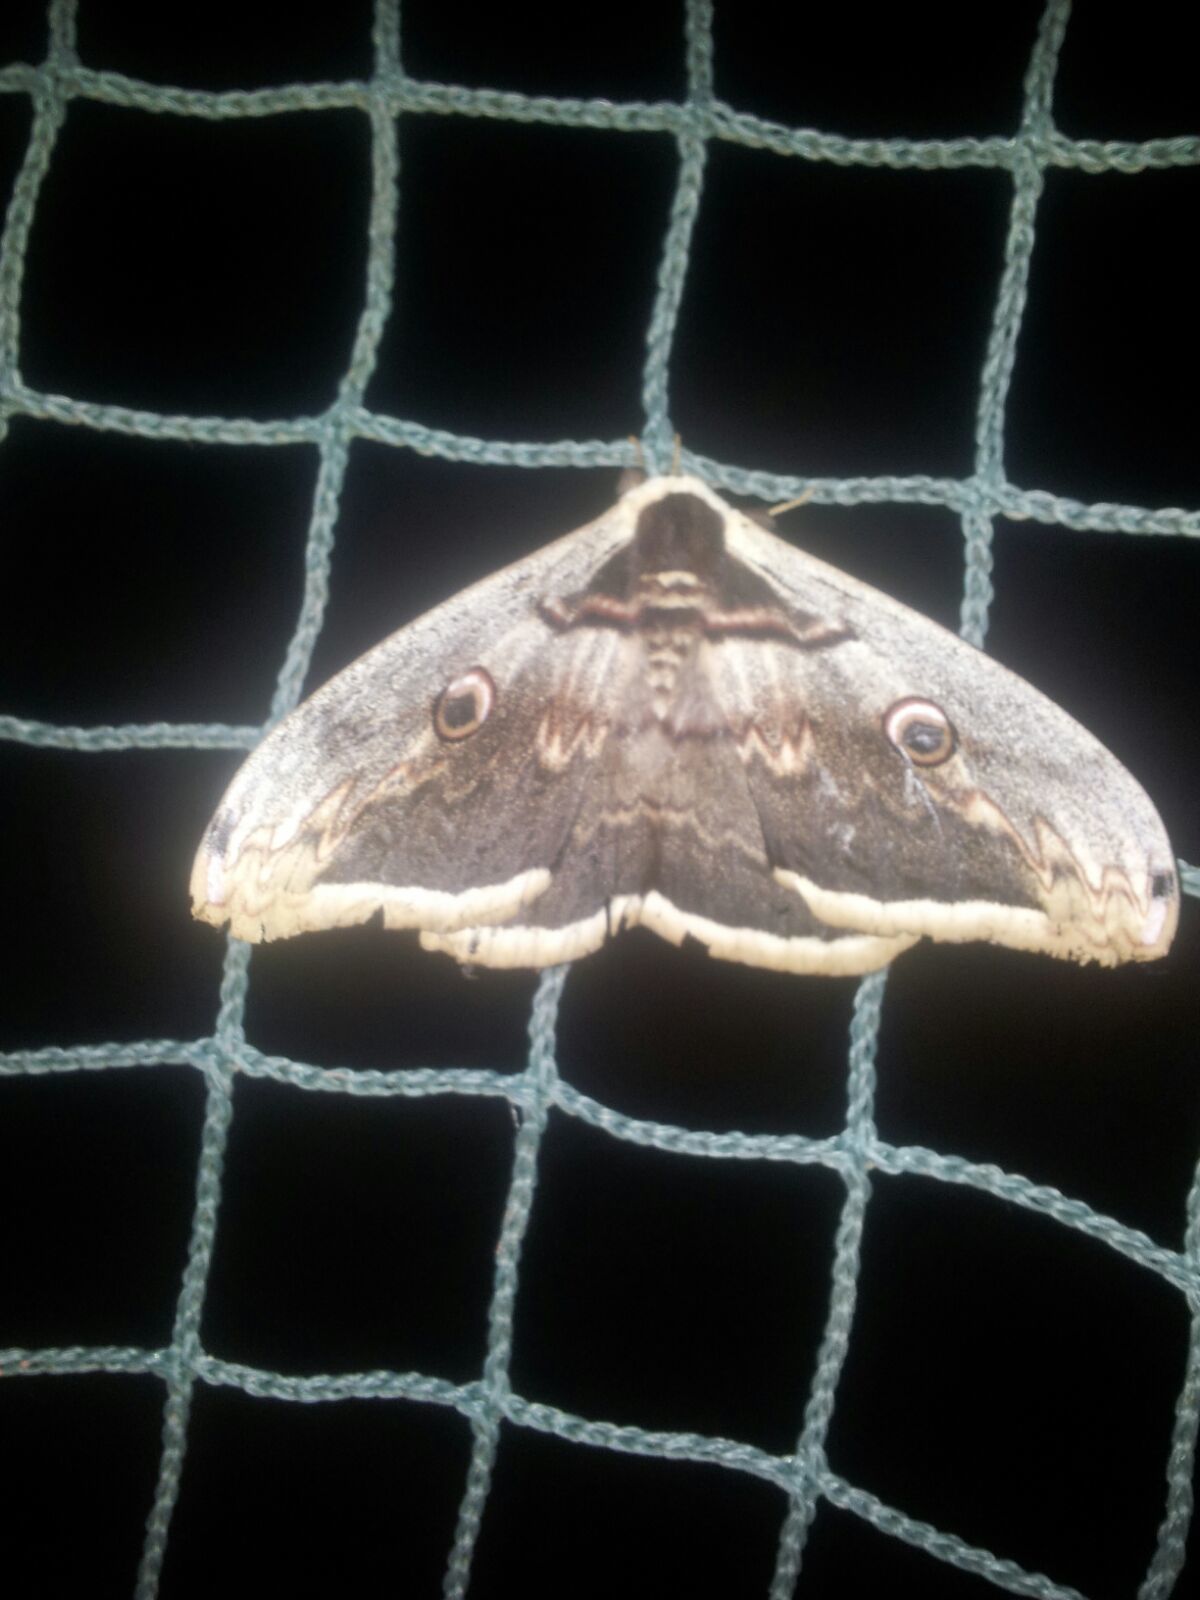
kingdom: Animalia
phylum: Arthropoda
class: Insecta
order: Lepidoptera
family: Saturniidae
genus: Saturnia
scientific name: Saturnia pyri
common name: Great peacock moth
